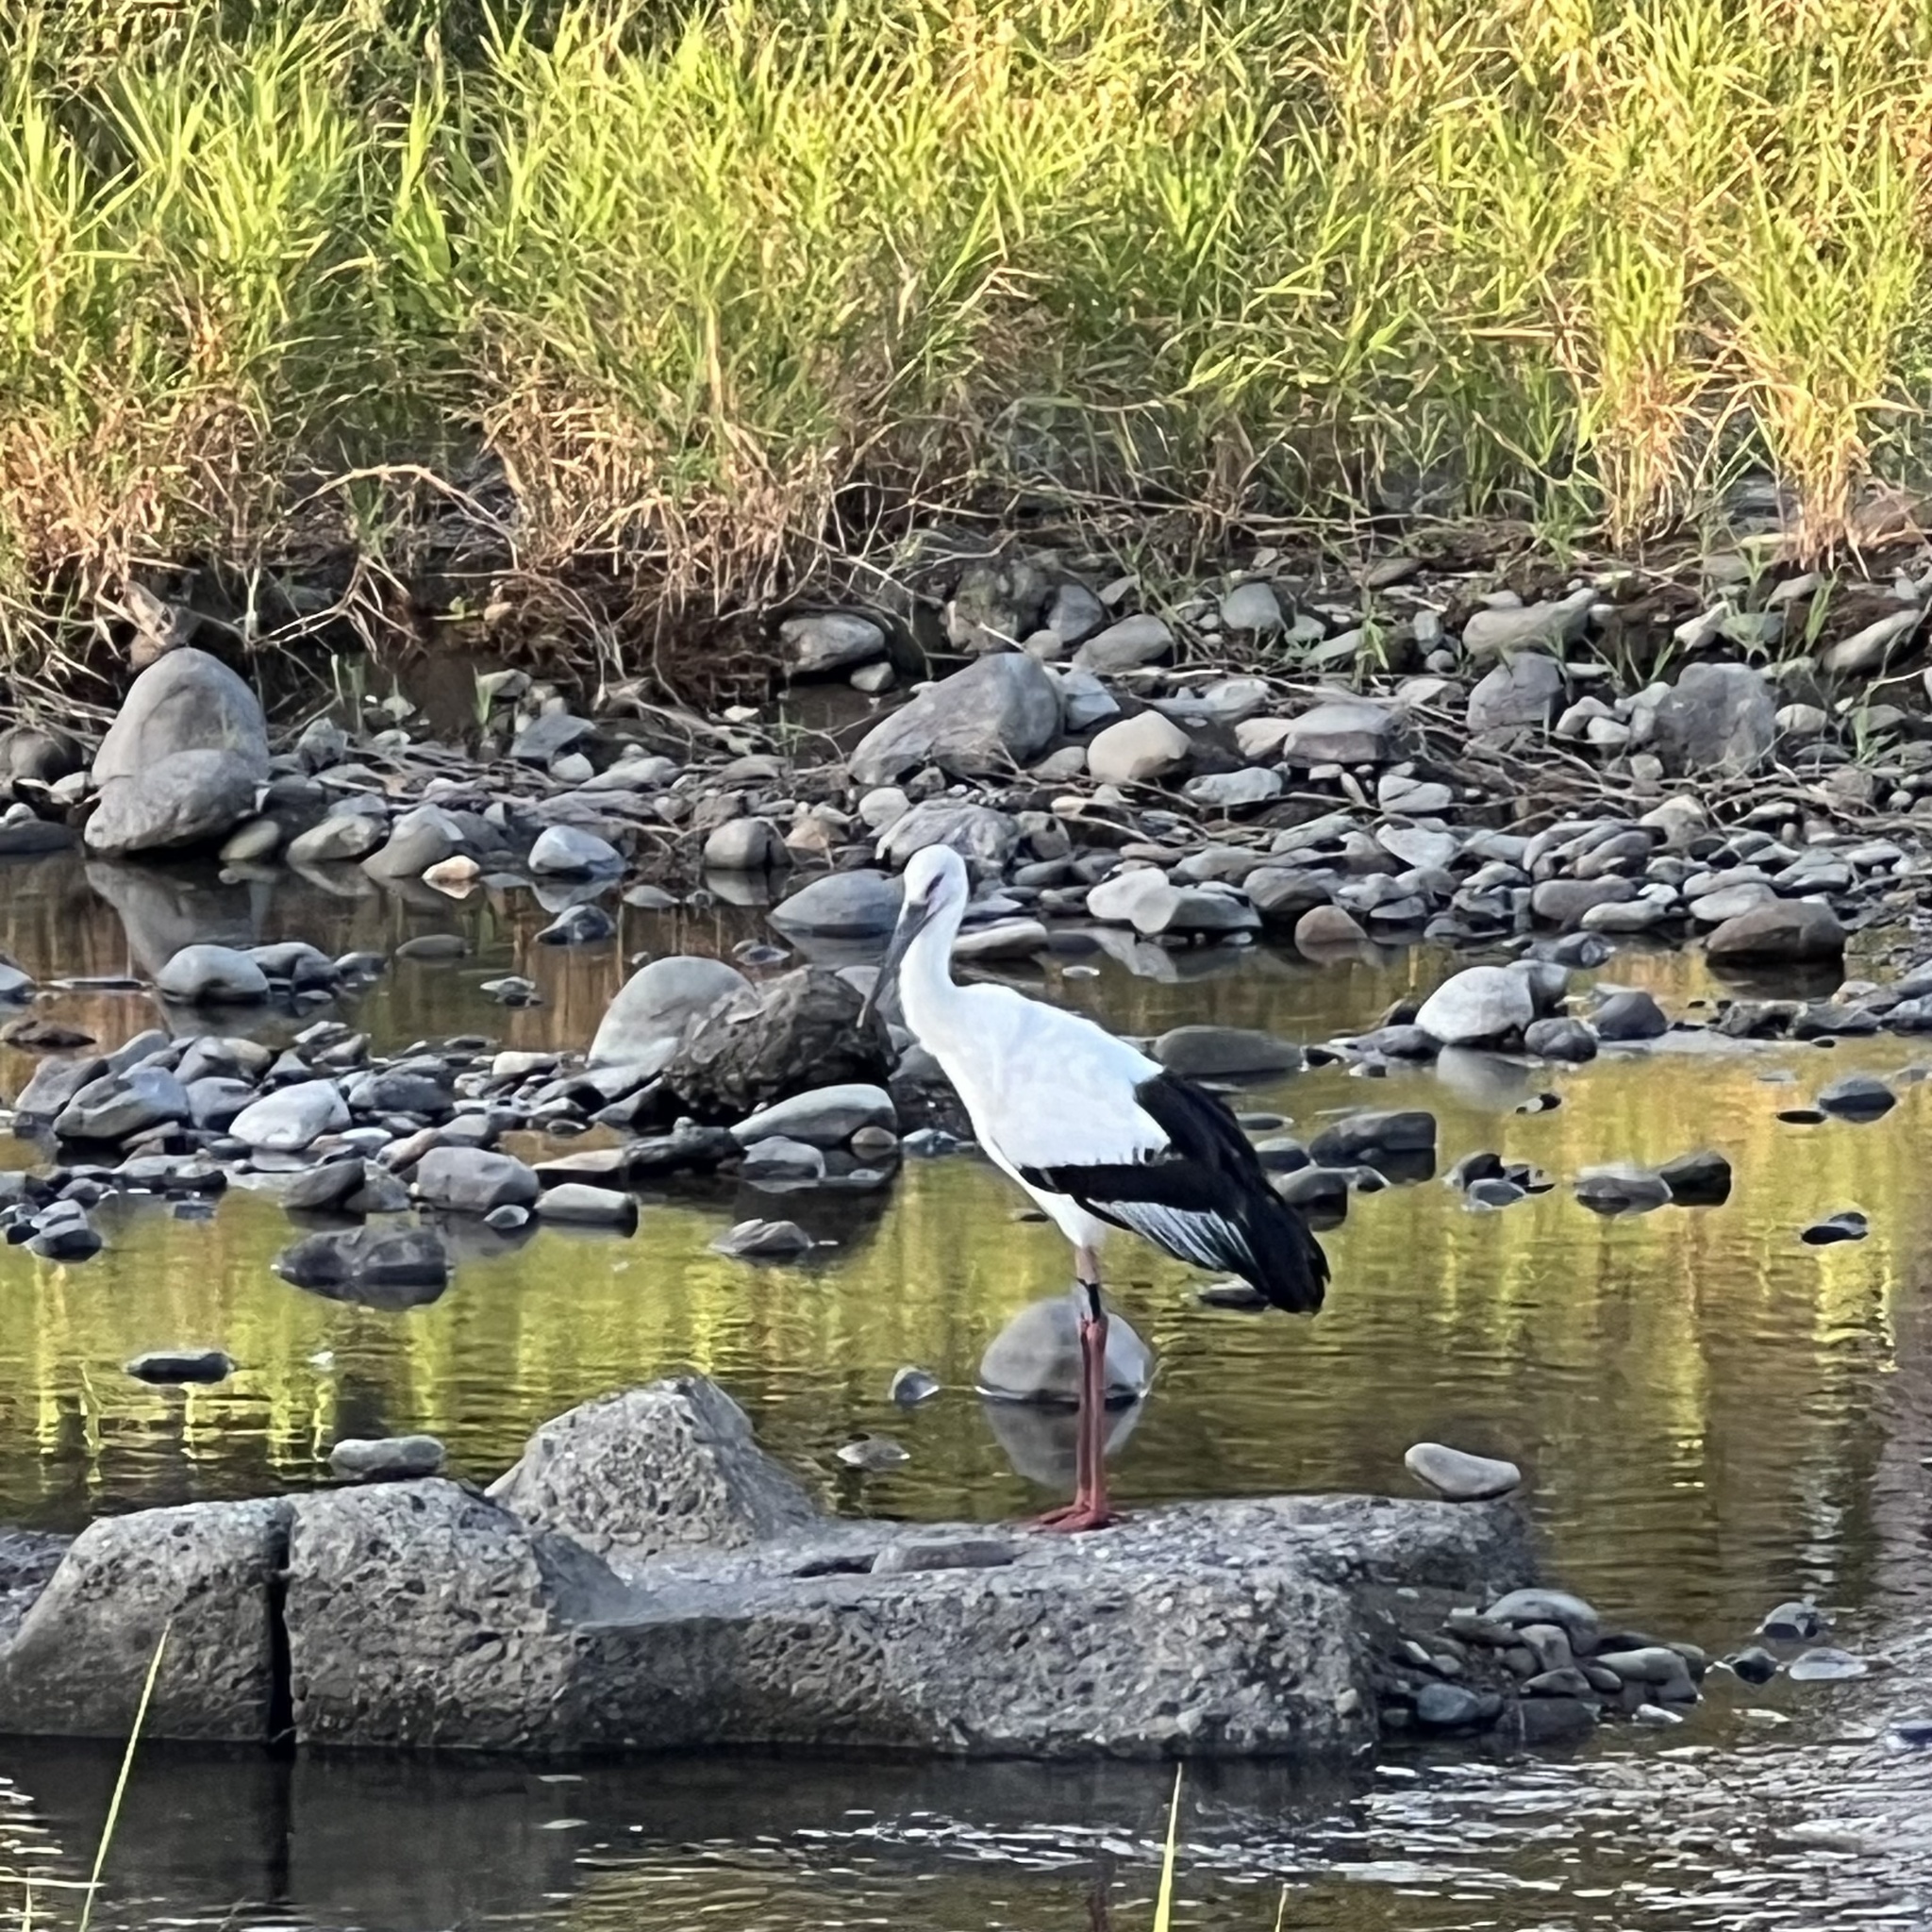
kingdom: Animalia
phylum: Chordata
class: Aves
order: Ciconiiformes
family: Ciconiidae
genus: Ciconia
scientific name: Ciconia boyciana
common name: Oriental stork
